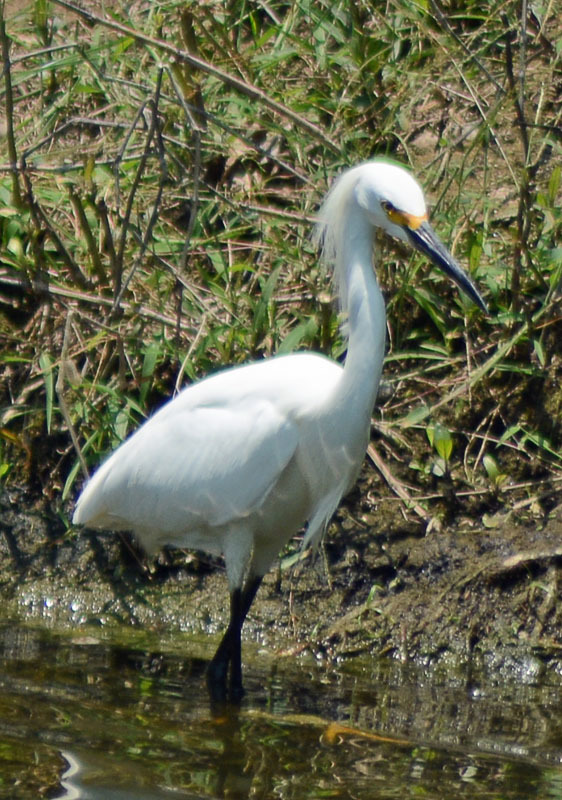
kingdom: Animalia
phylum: Chordata
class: Aves
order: Pelecaniformes
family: Ardeidae
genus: Egretta
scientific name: Egretta thula
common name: Snowy egret
